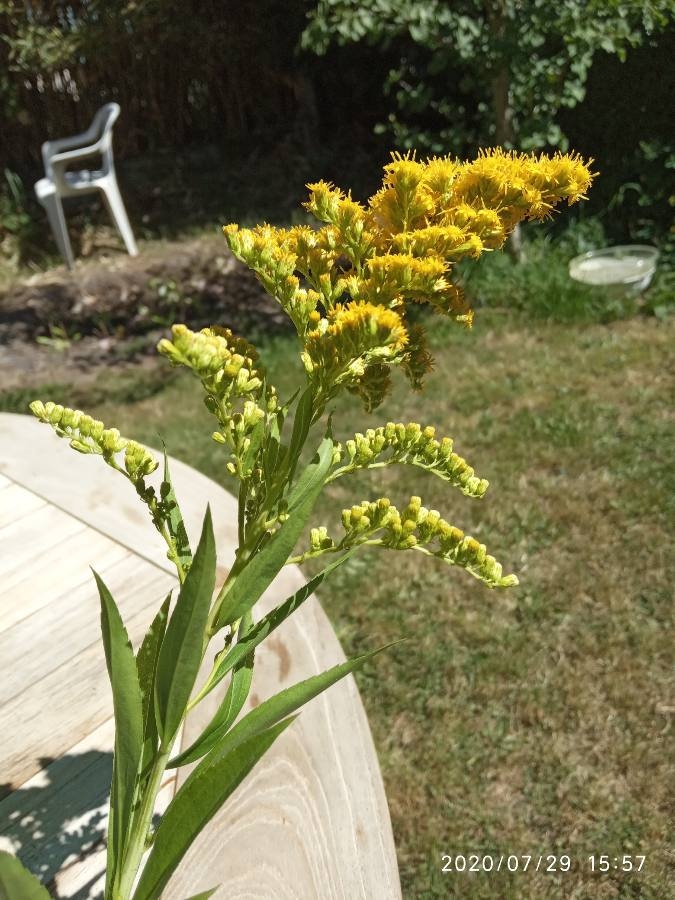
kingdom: Plantae
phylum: Tracheophyta
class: Magnoliopsida
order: Asterales
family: Asteraceae
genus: Solidago
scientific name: Solidago gigantea
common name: Giant goldenrod
